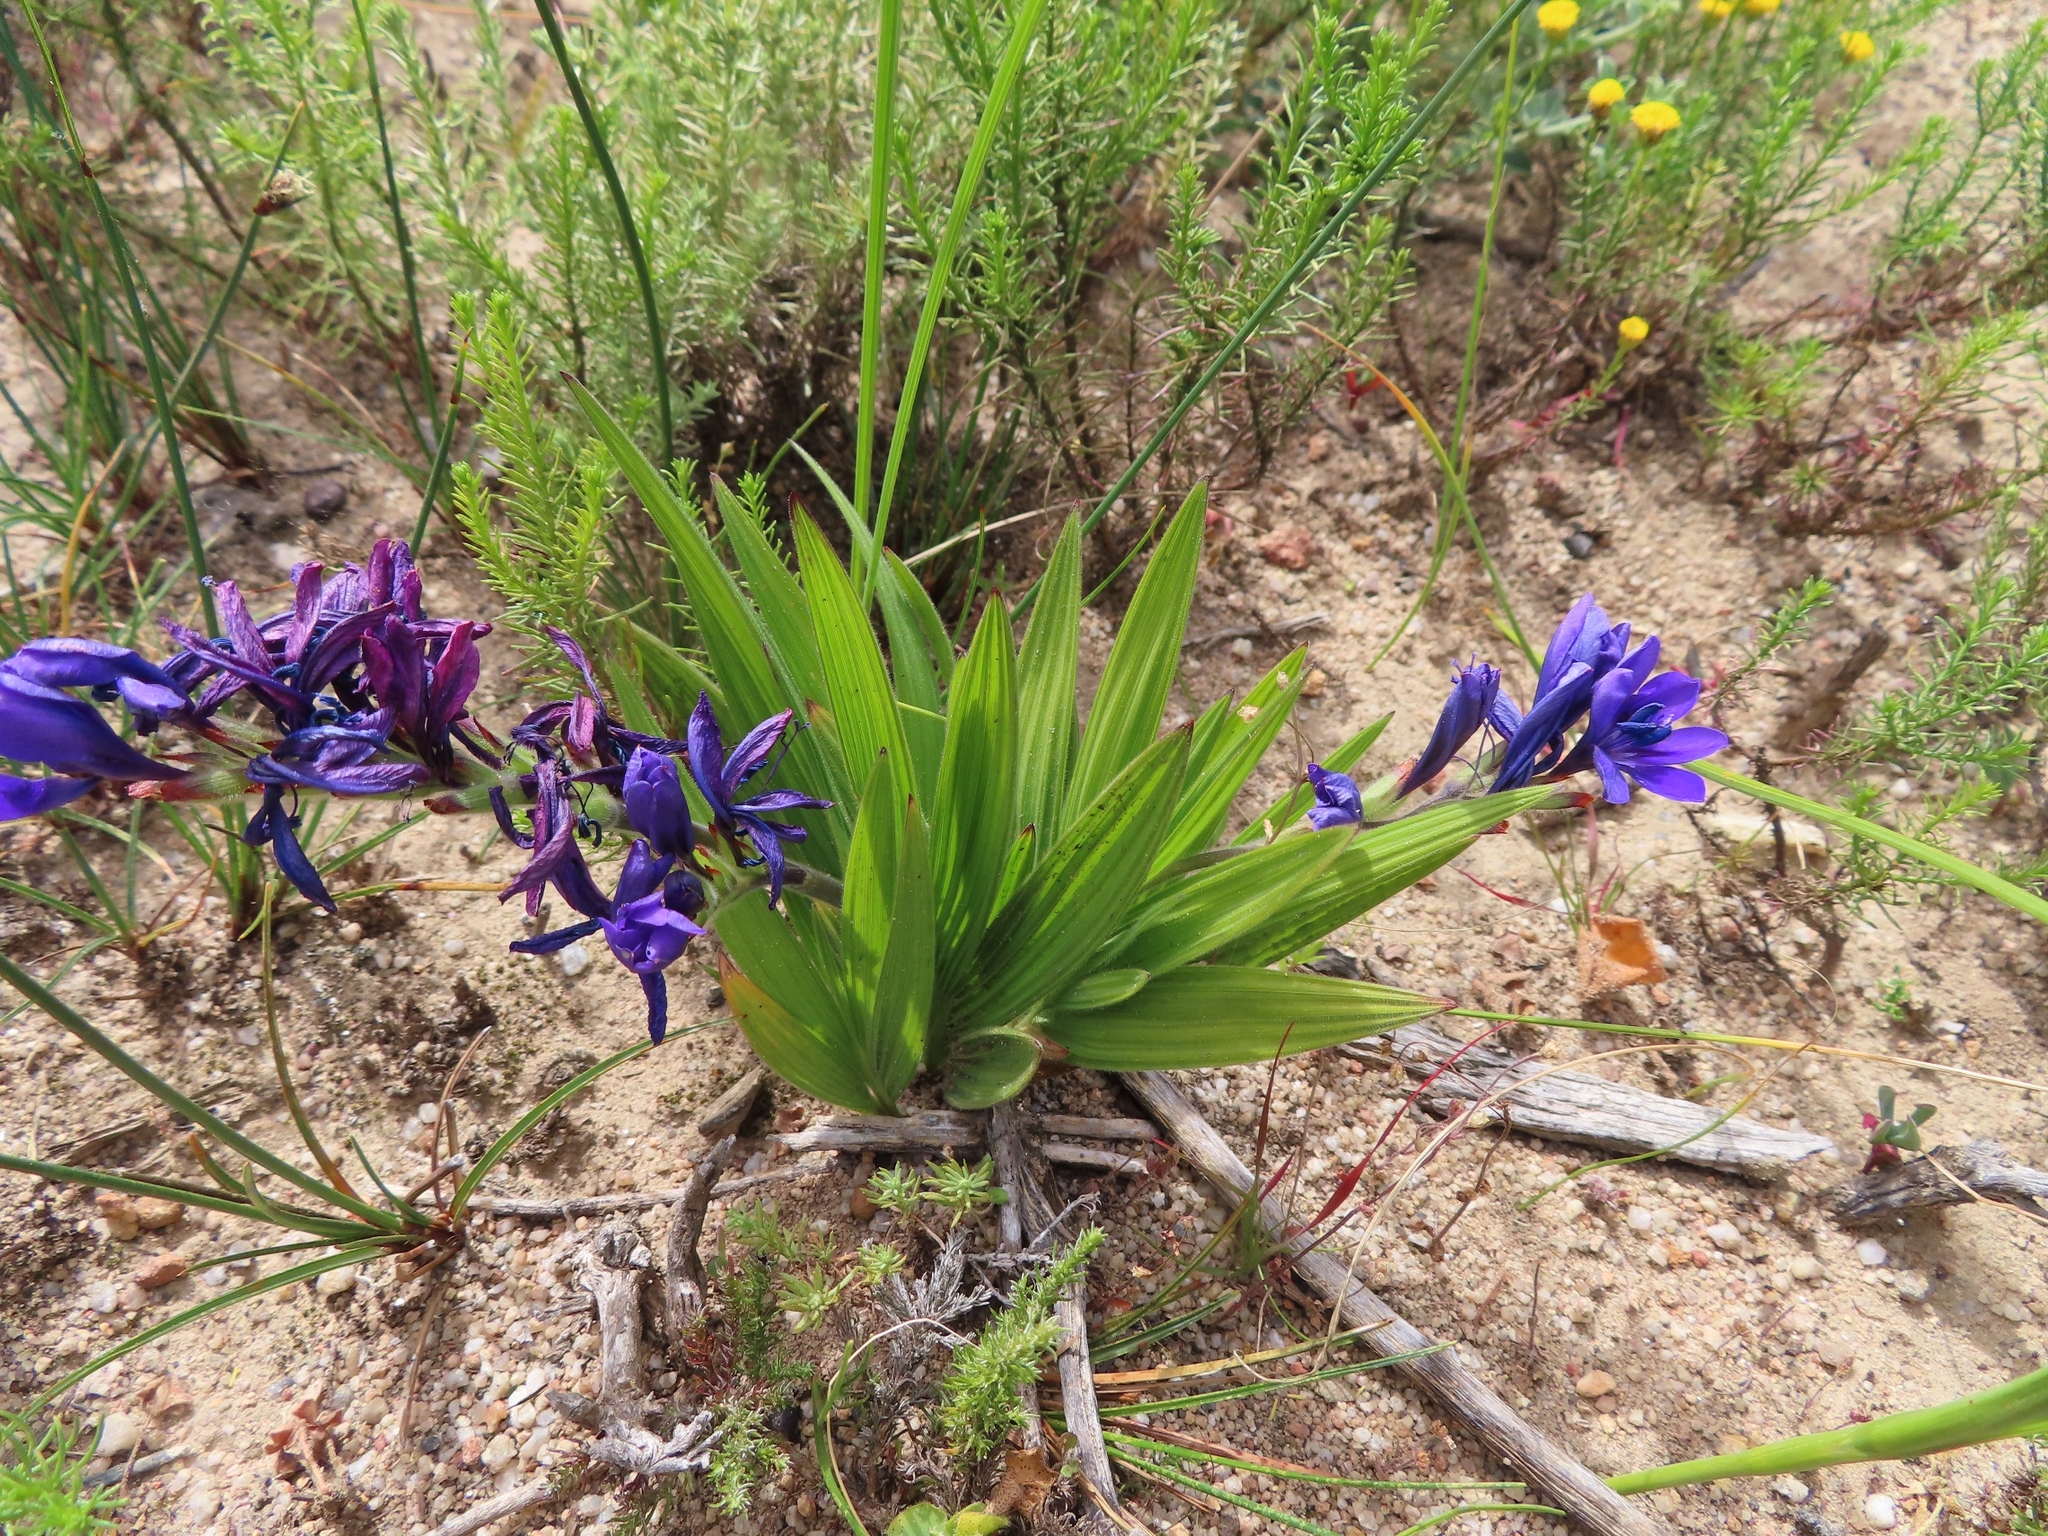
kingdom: Plantae
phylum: Tracheophyta
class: Liliopsida
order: Asparagales
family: Iridaceae
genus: Babiana
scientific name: Babiana angustifolia
